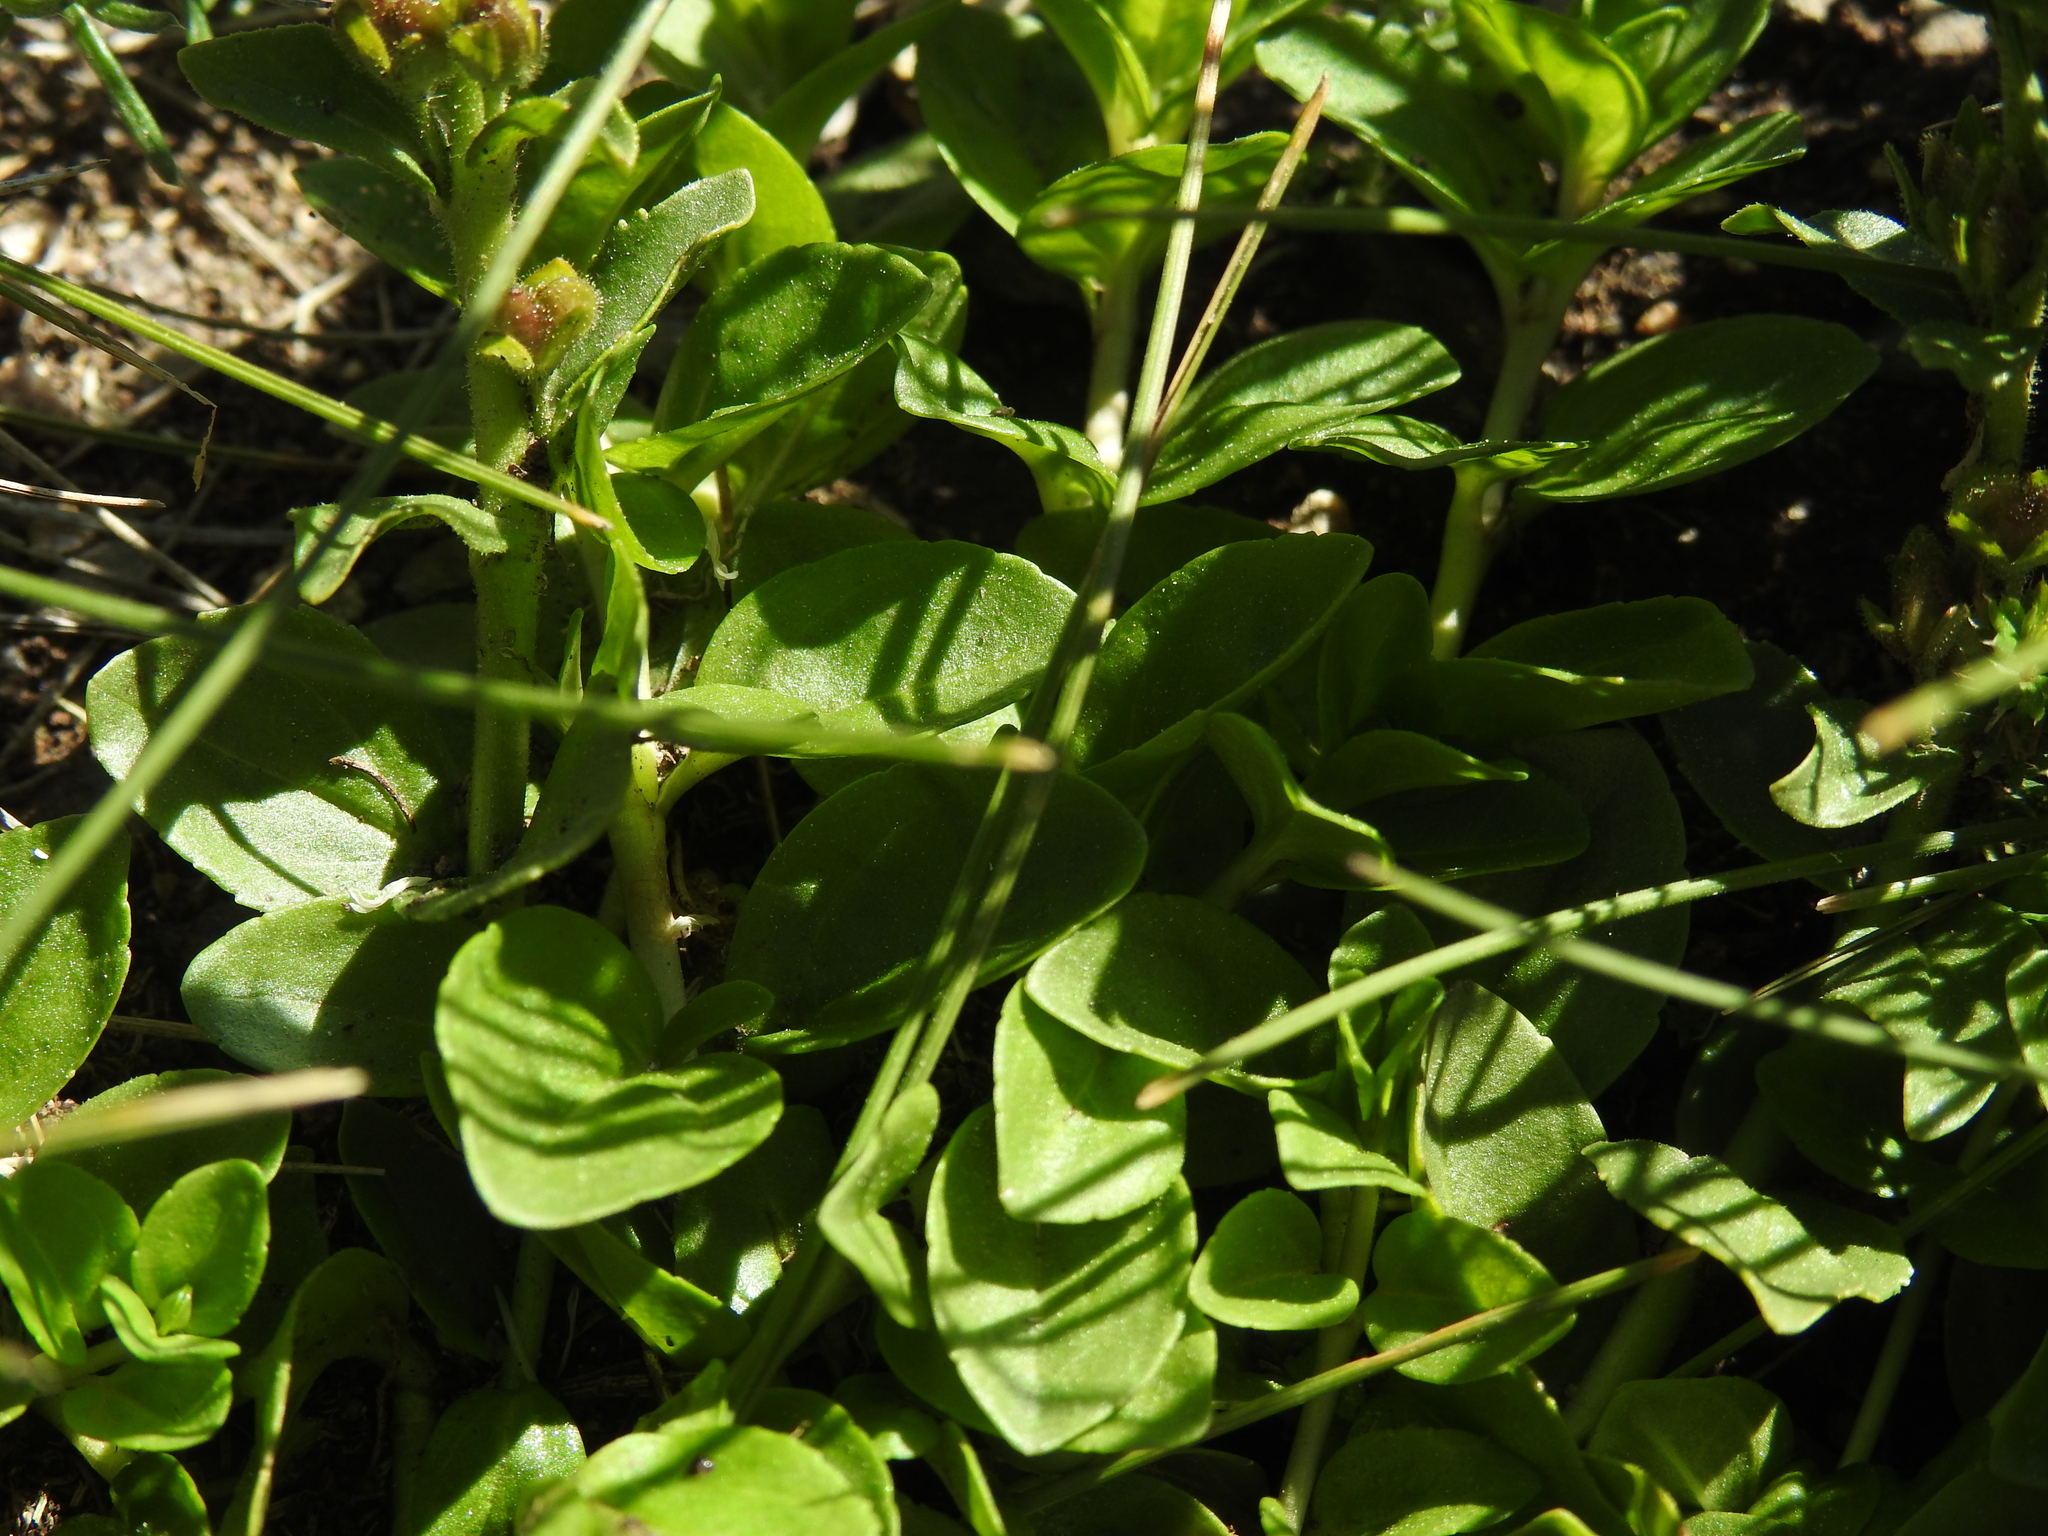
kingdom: Plantae
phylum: Tracheophyta
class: Magnoliopsida
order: Lamiales
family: Plantaginaceae
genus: Veronica
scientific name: Veronica serpyllifolia
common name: Thyme-leaved speedwell
